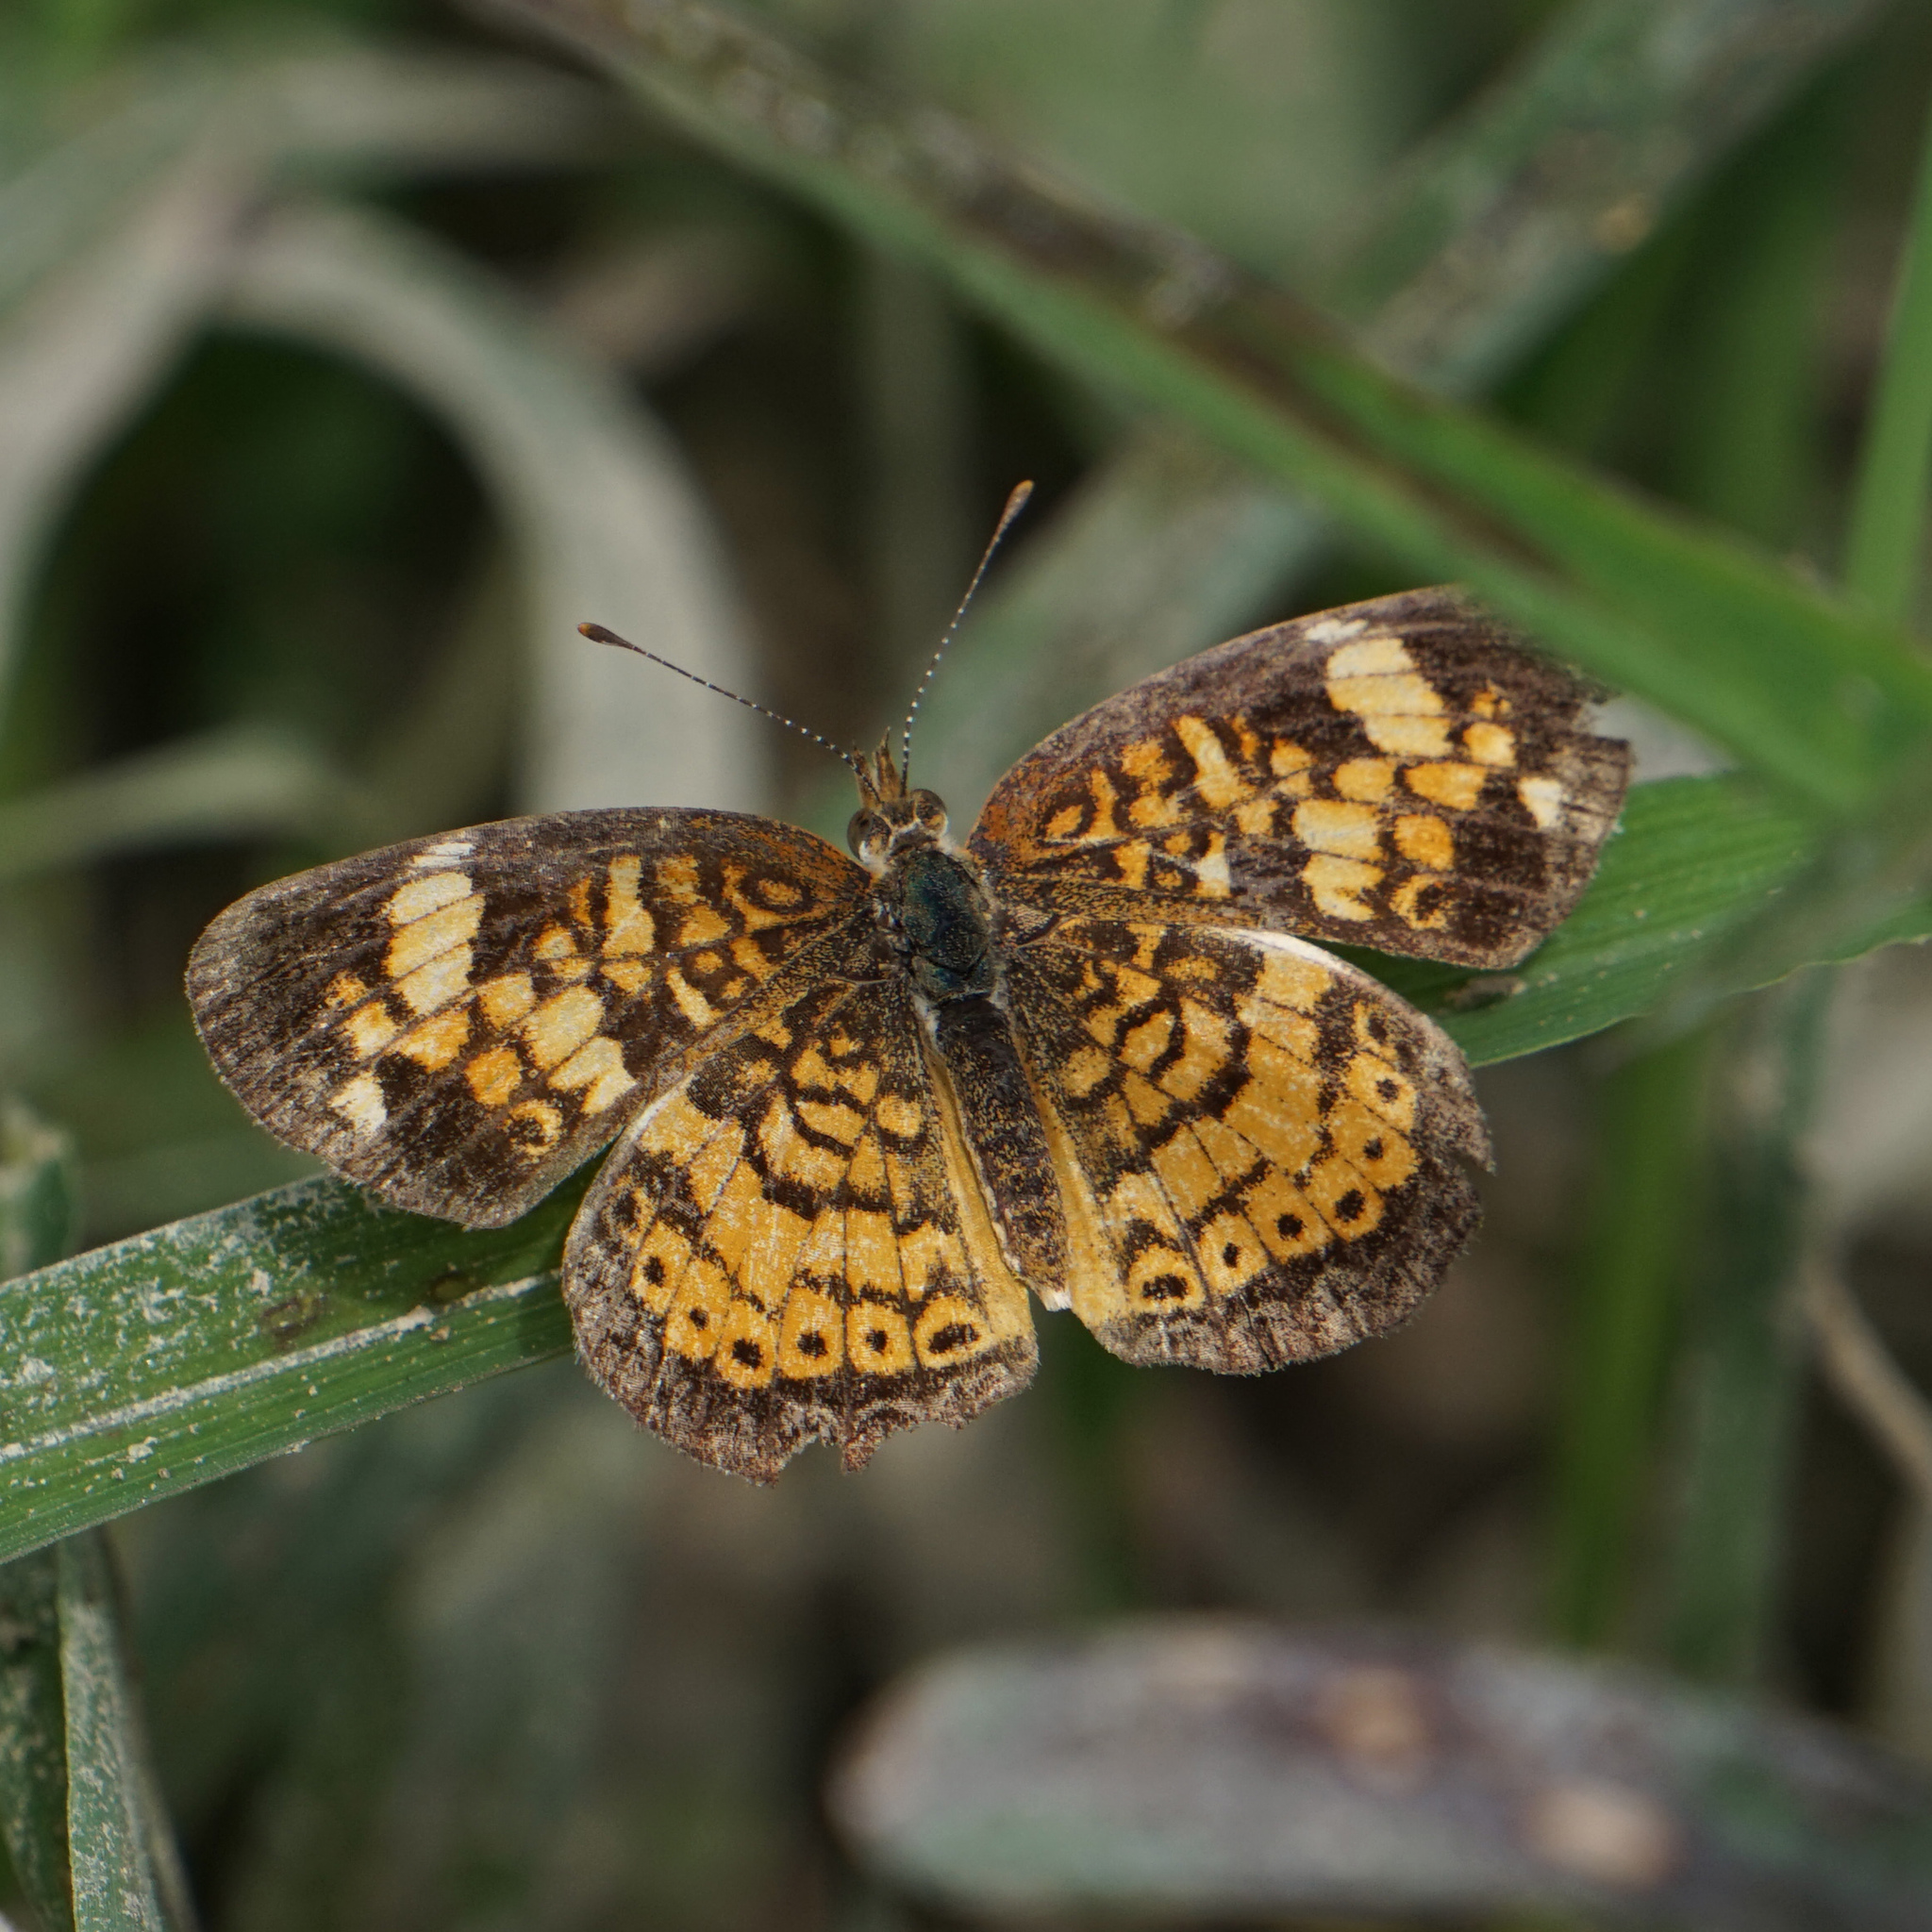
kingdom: Animalia
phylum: Arthropoda
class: Insecta
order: Lepidoptera
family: Nymphalidae
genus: Phyciodes
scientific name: Phyciodes tharos
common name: Pearl crescent
